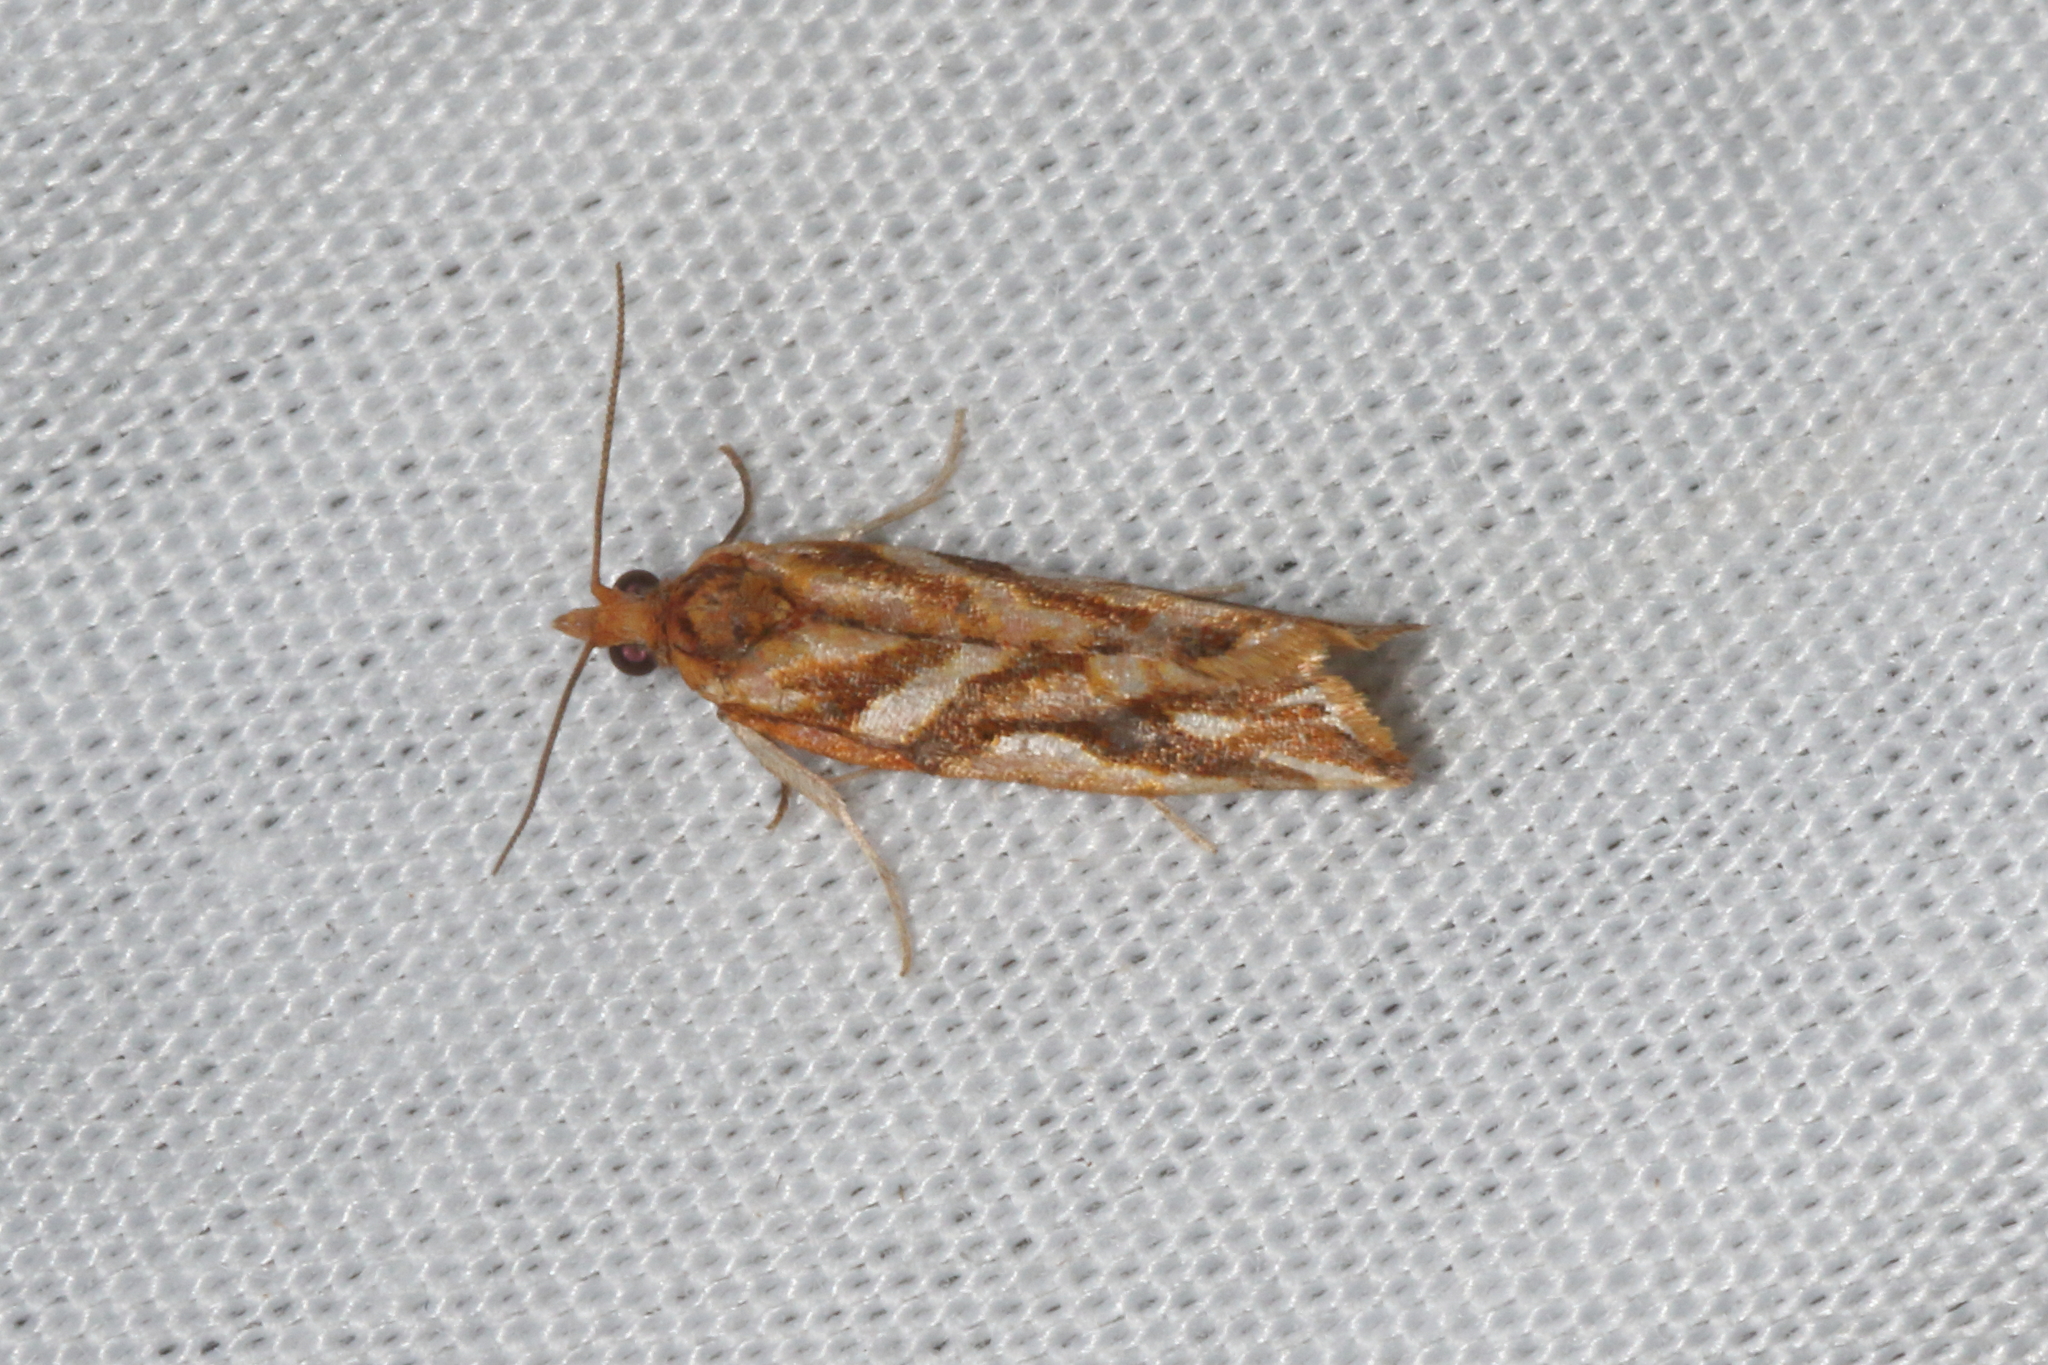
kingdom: Animalia
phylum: Arthropoda
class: Insecta
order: Lepidoptera
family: Tortricidae
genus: Pyrgotis
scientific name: Pyrgotis plinthoglypta
